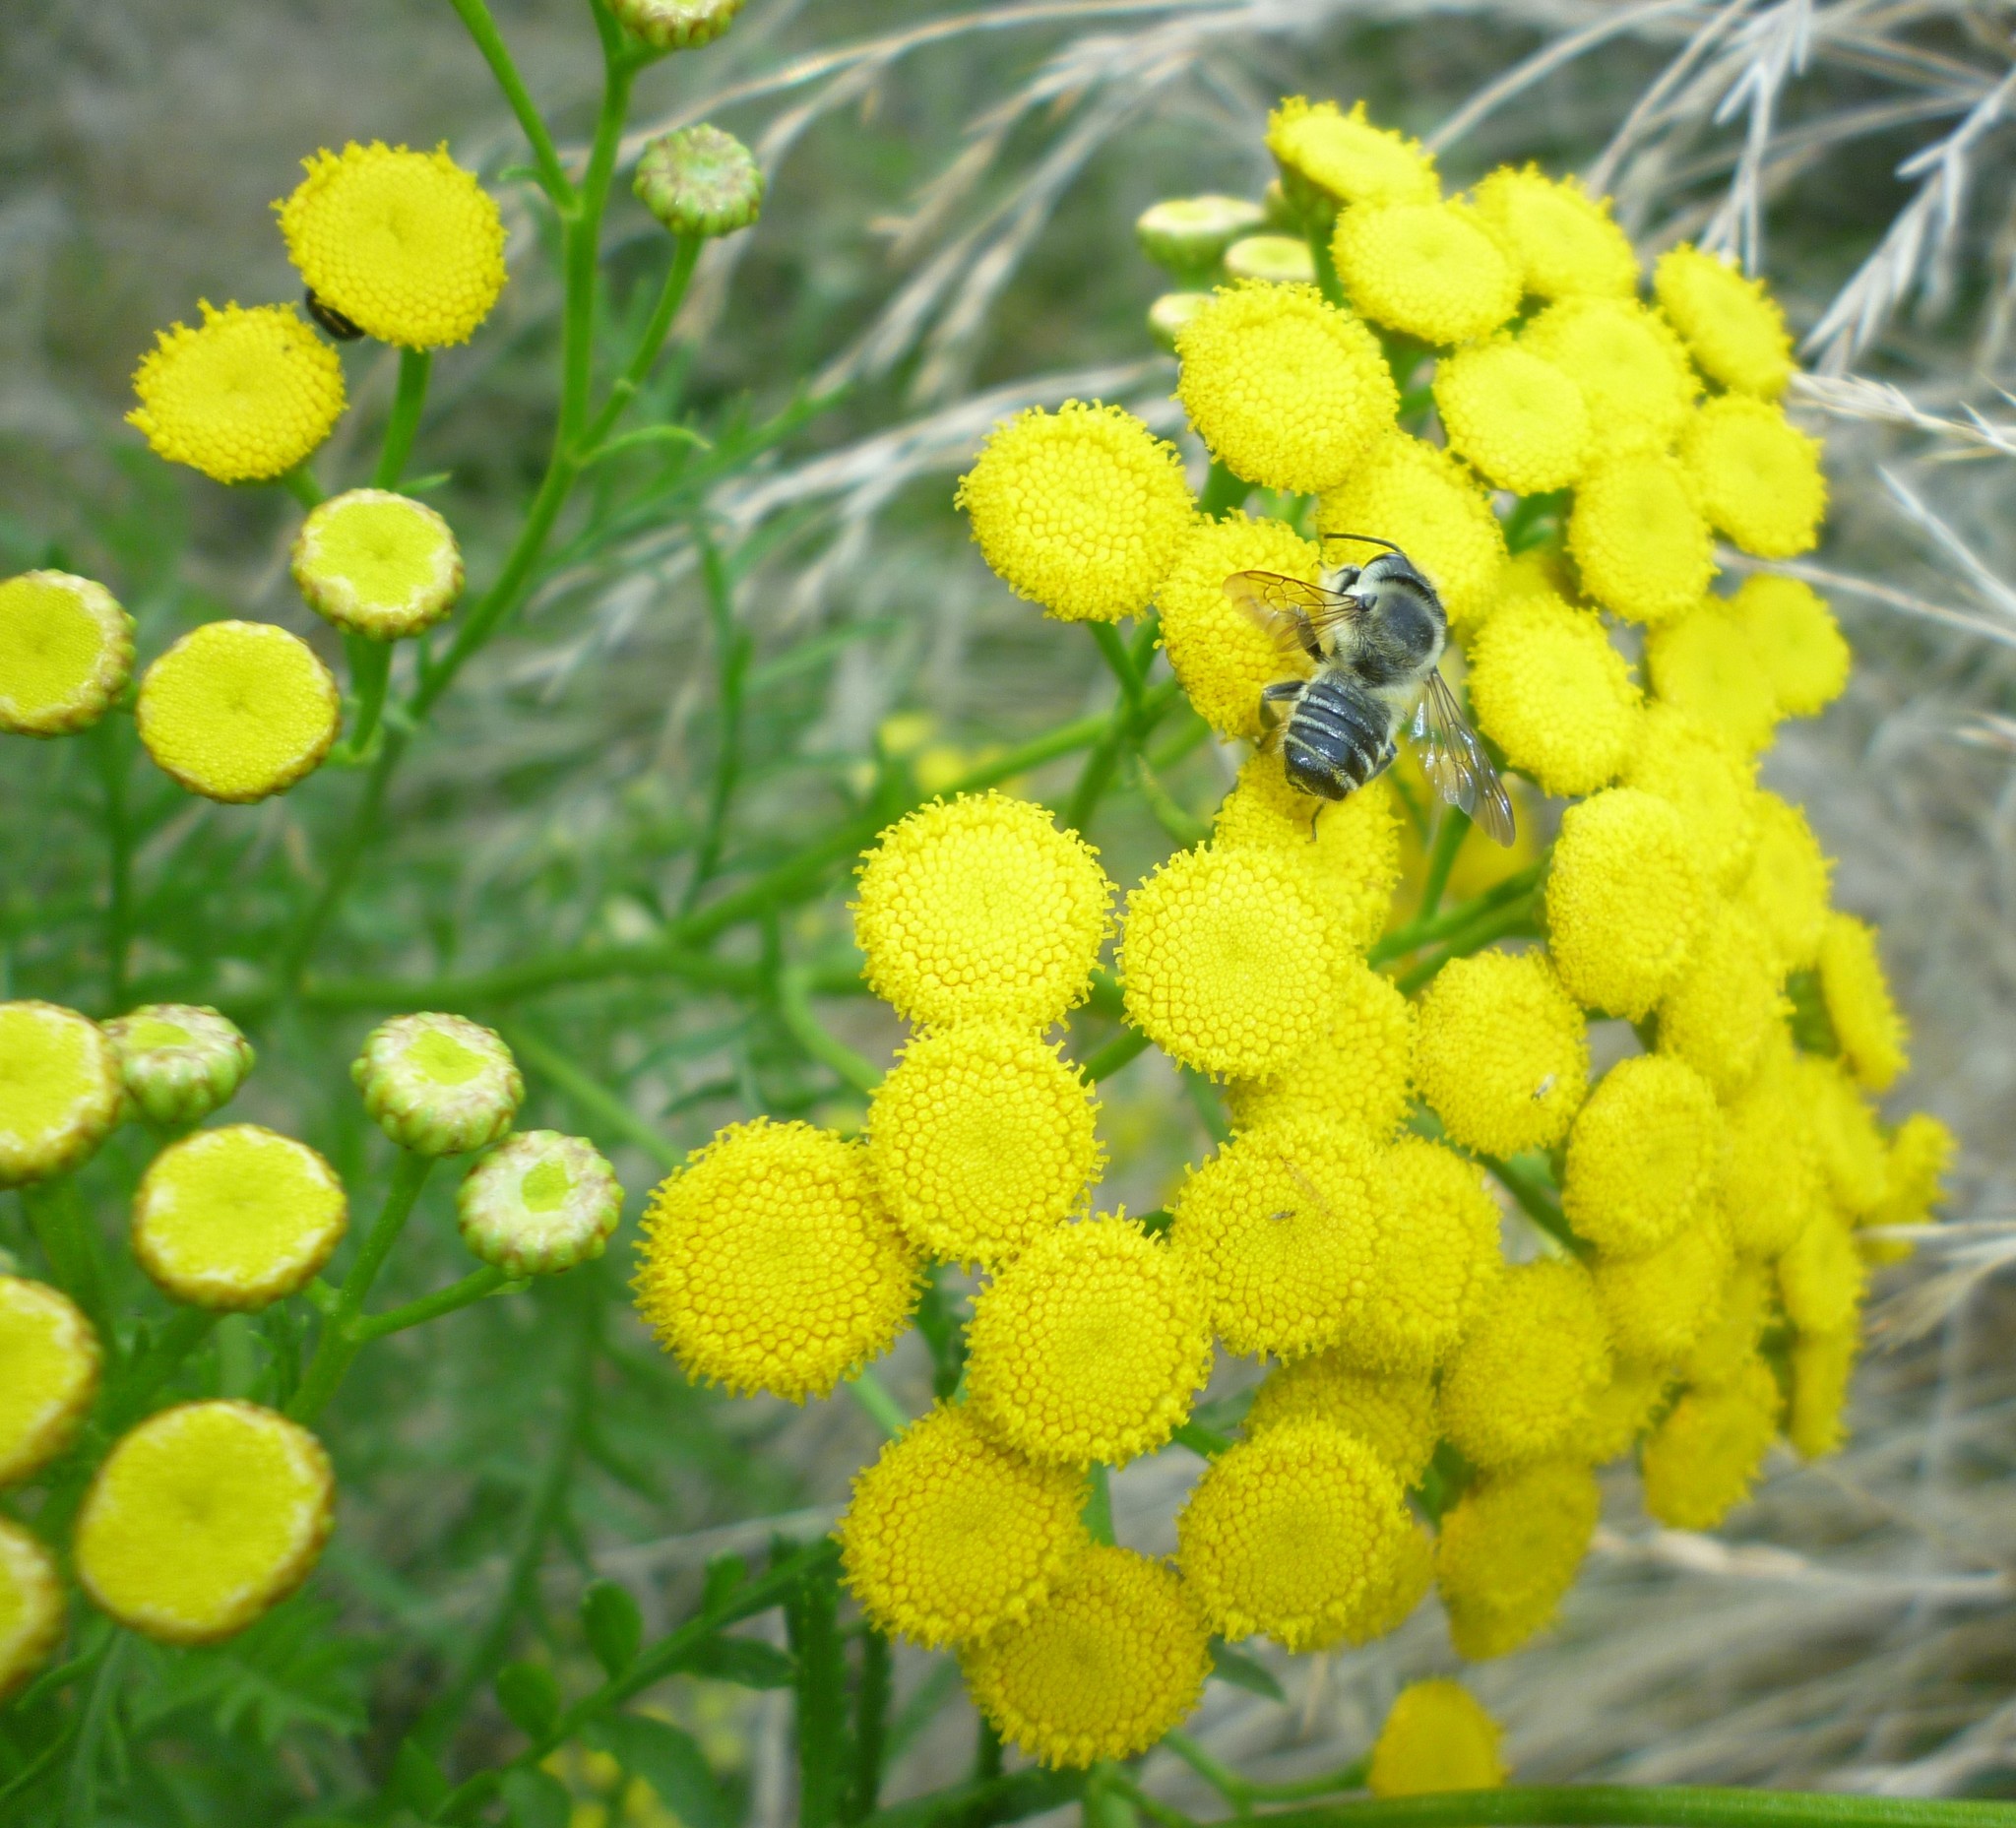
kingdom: Plantae
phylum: Tracheophyta
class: Magnoliopsida
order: Asterales
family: Asteraceae
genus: Tanacetum
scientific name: Tanacetum vulgare
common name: Common tansy
